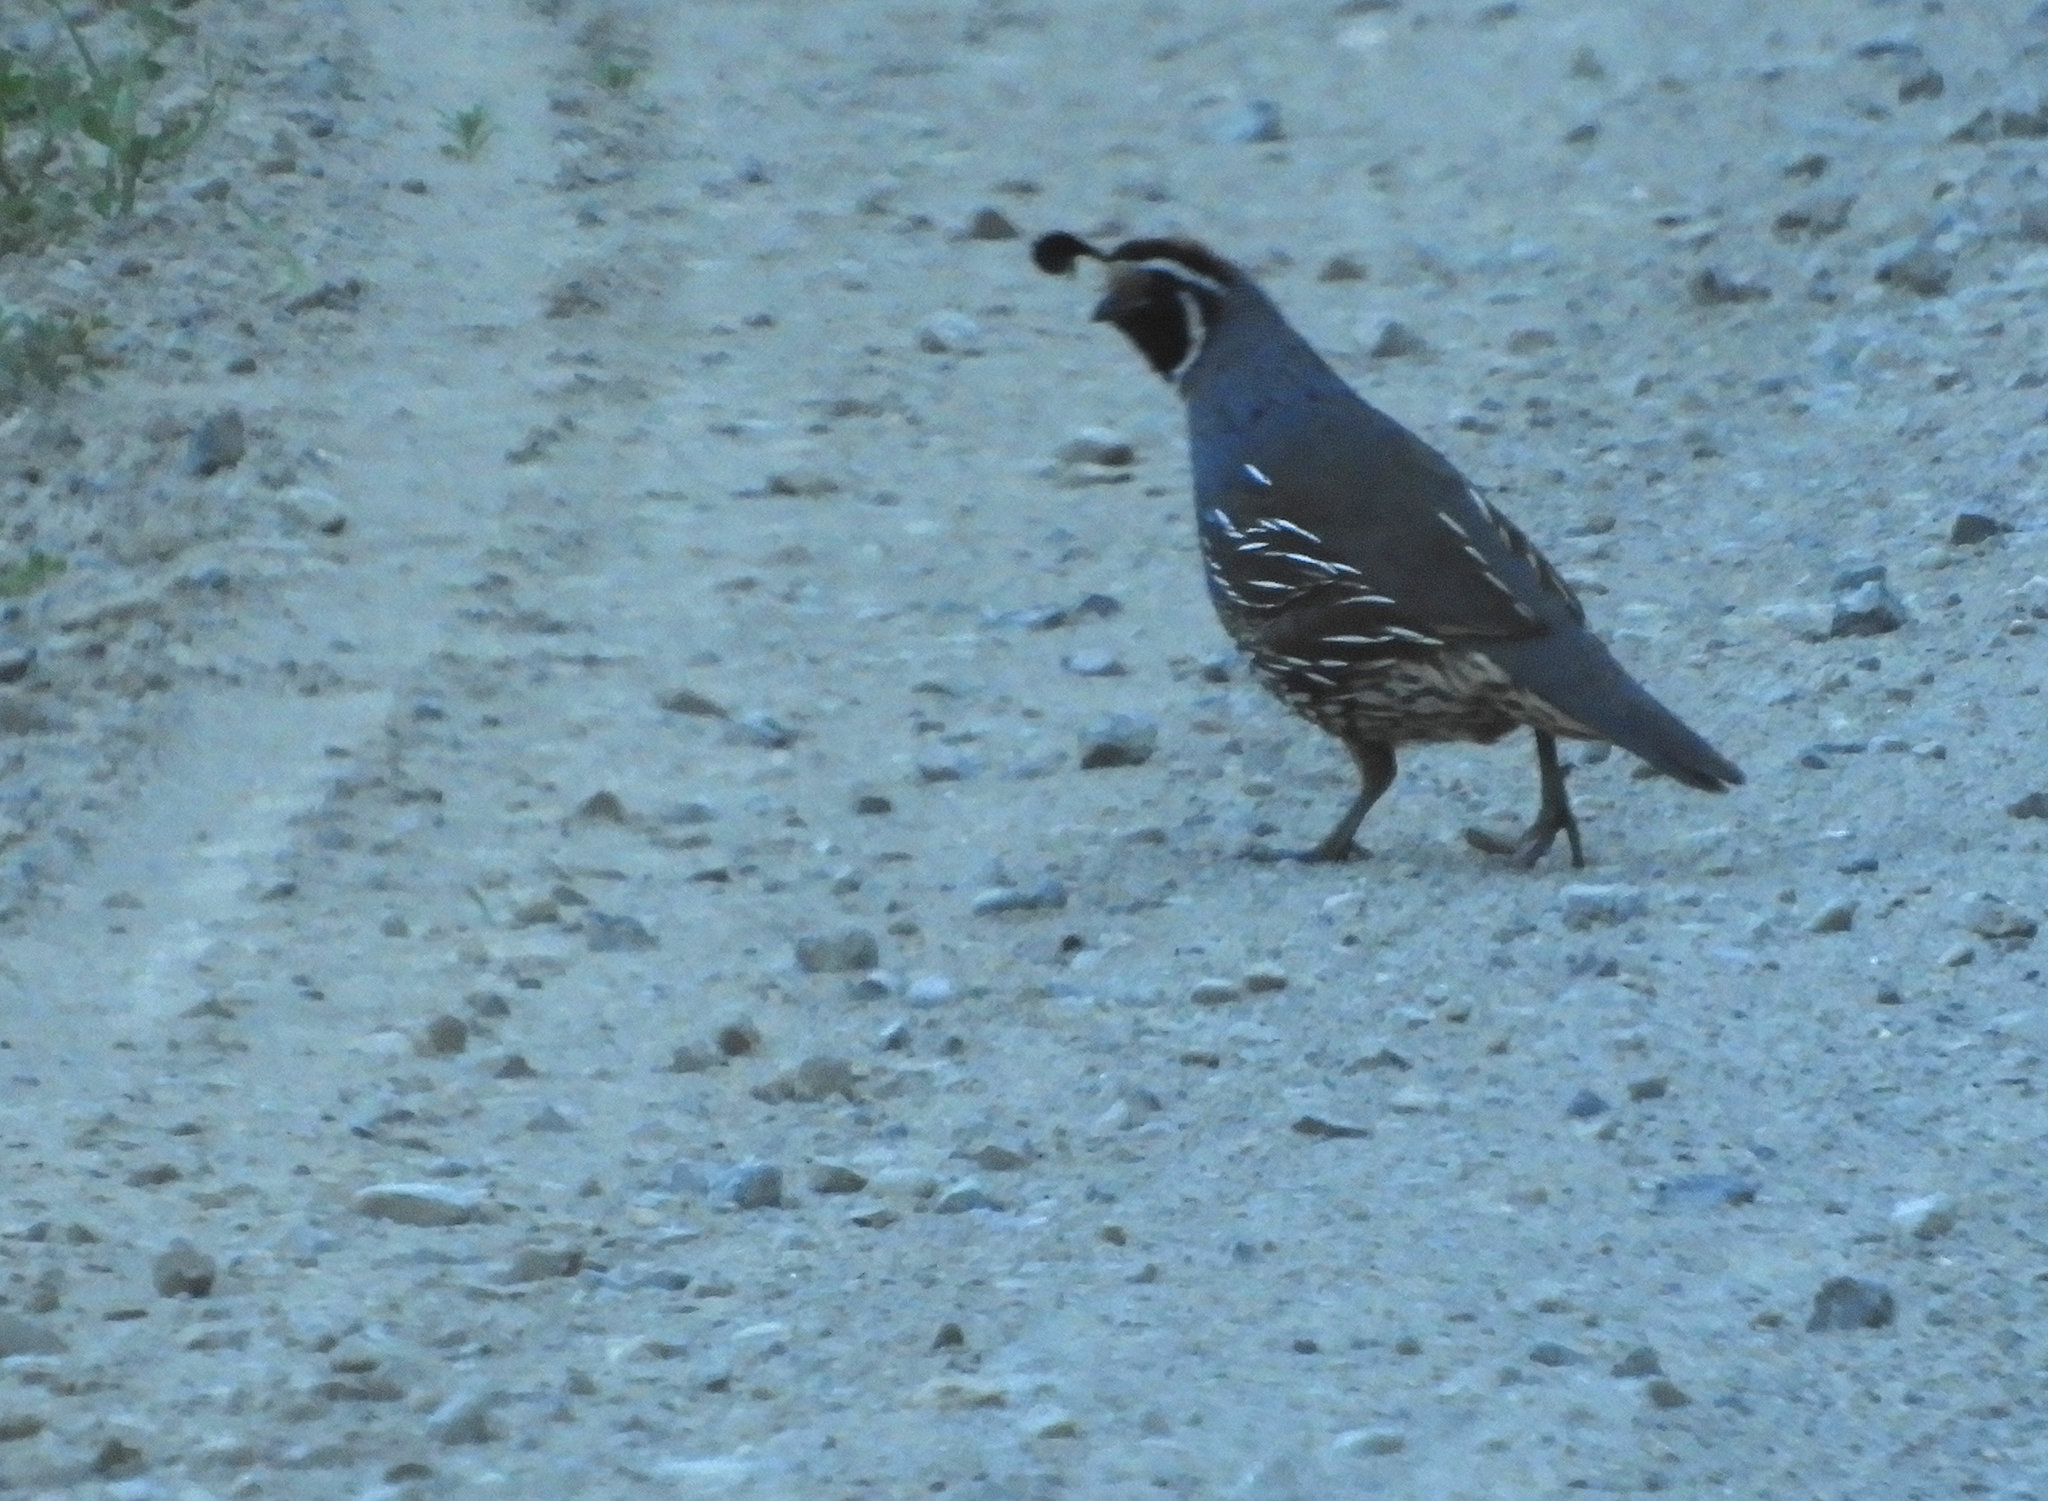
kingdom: Animalia
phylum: Chordata
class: Aves
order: Galliformes
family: Odontophoridae
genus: Callipepla
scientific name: Callipepla californica
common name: California quail
